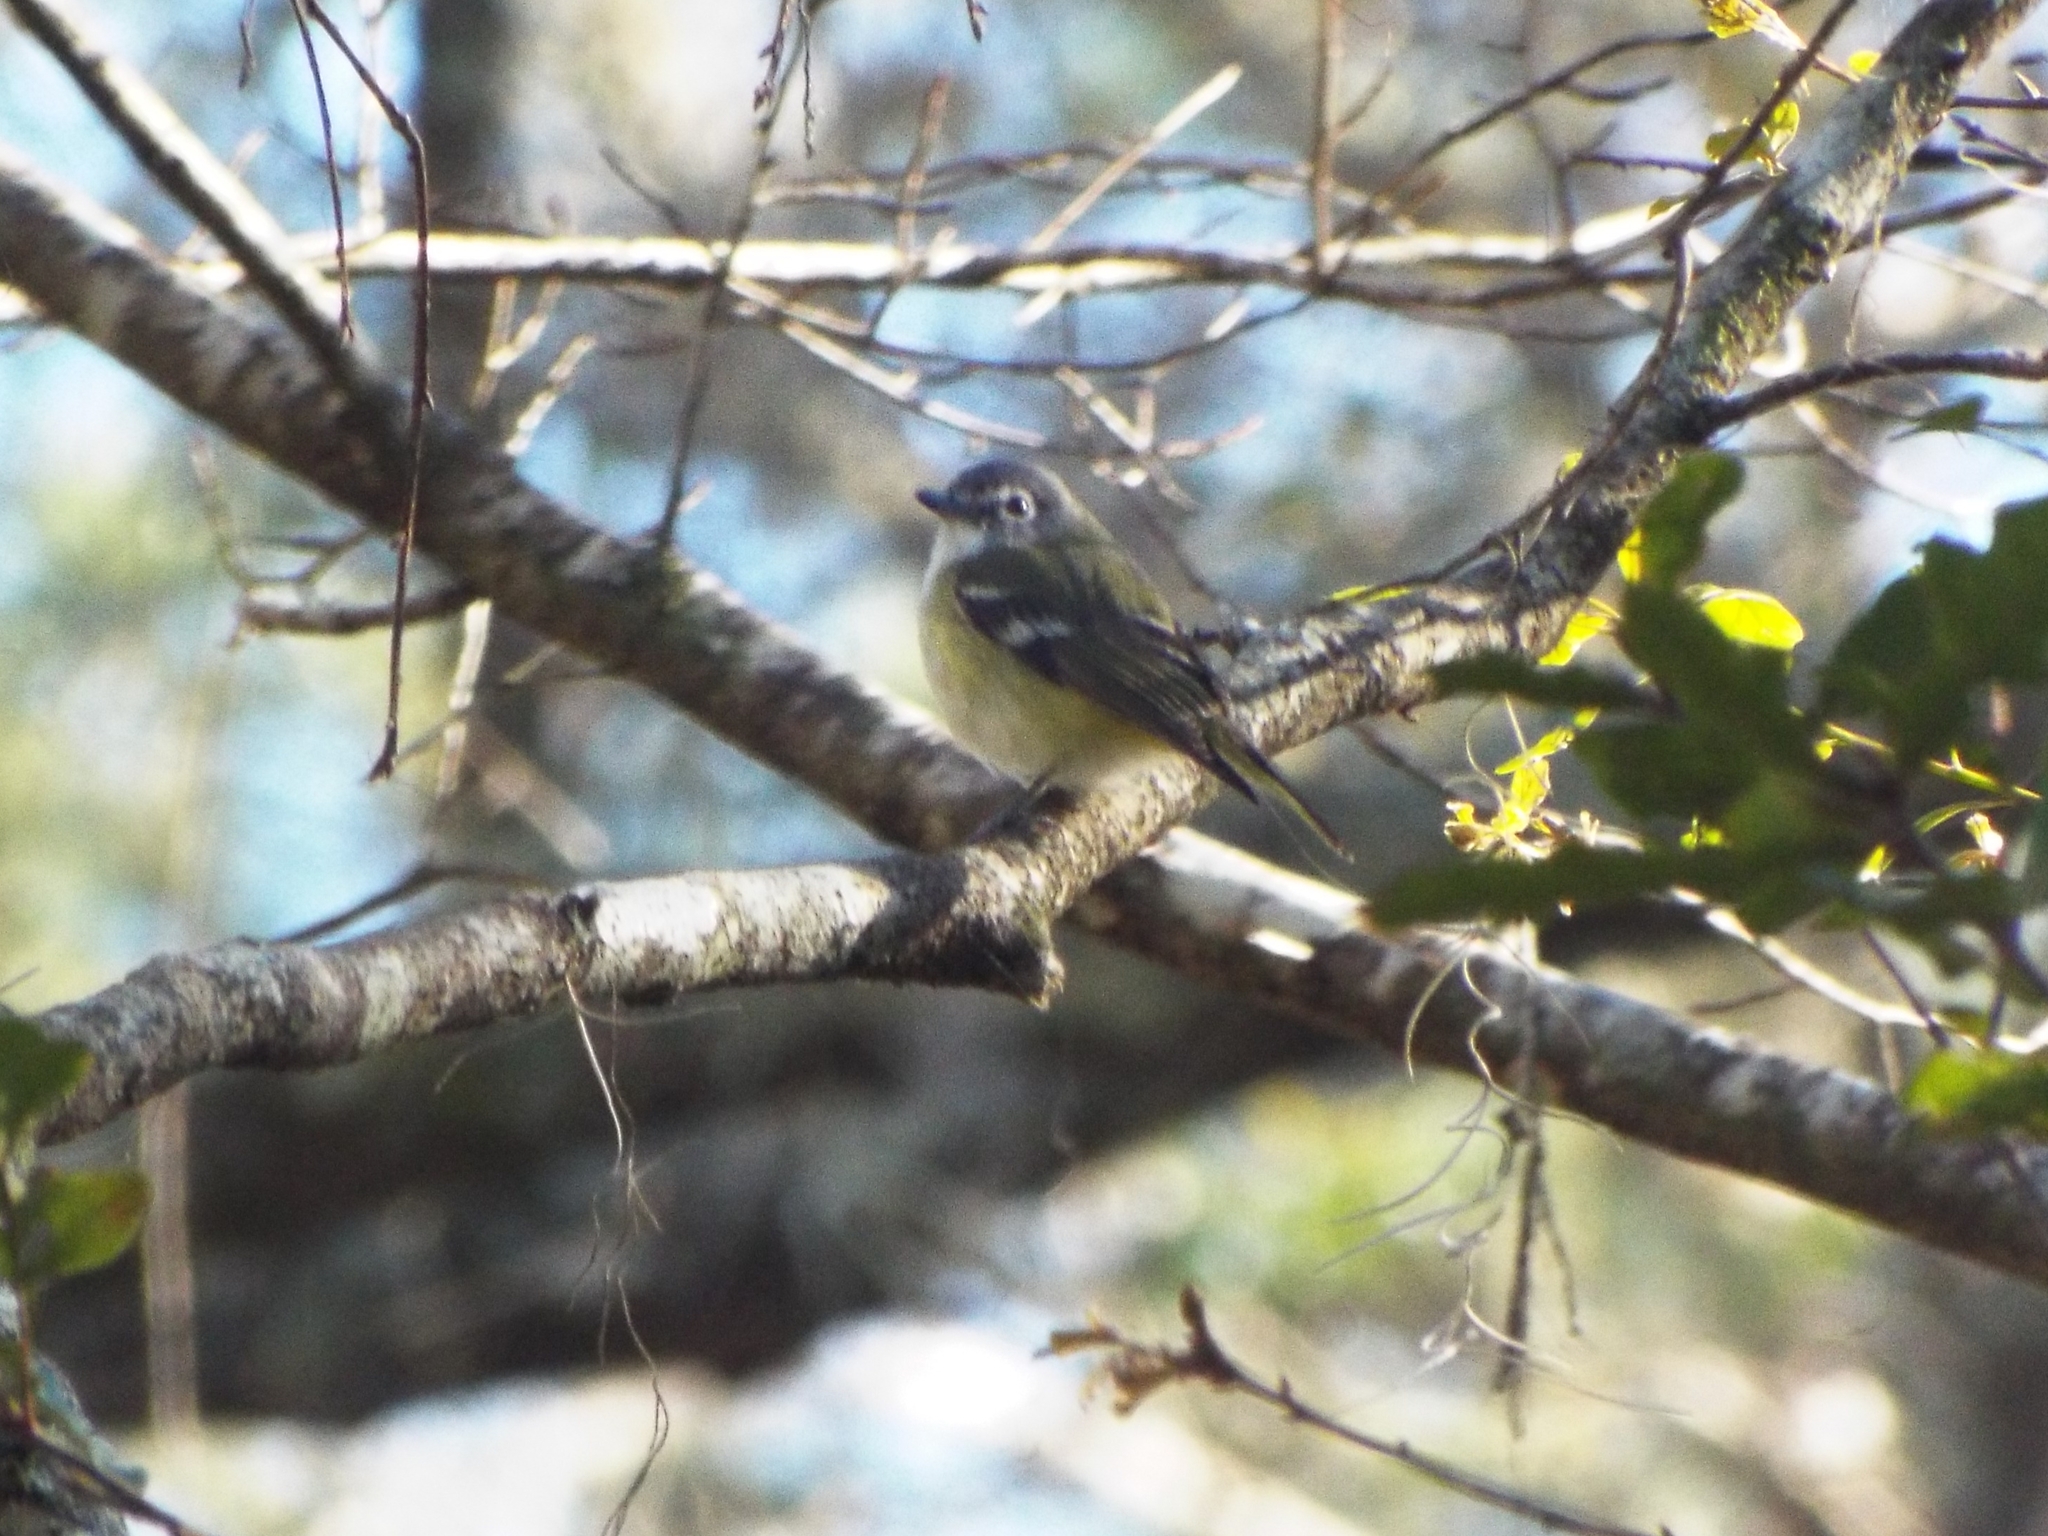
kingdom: Animalia
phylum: Chordata
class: Aves
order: Passeriformes
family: Vireonidae
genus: Vireo
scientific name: Vireo solitarius
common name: Blue-headed vireo
